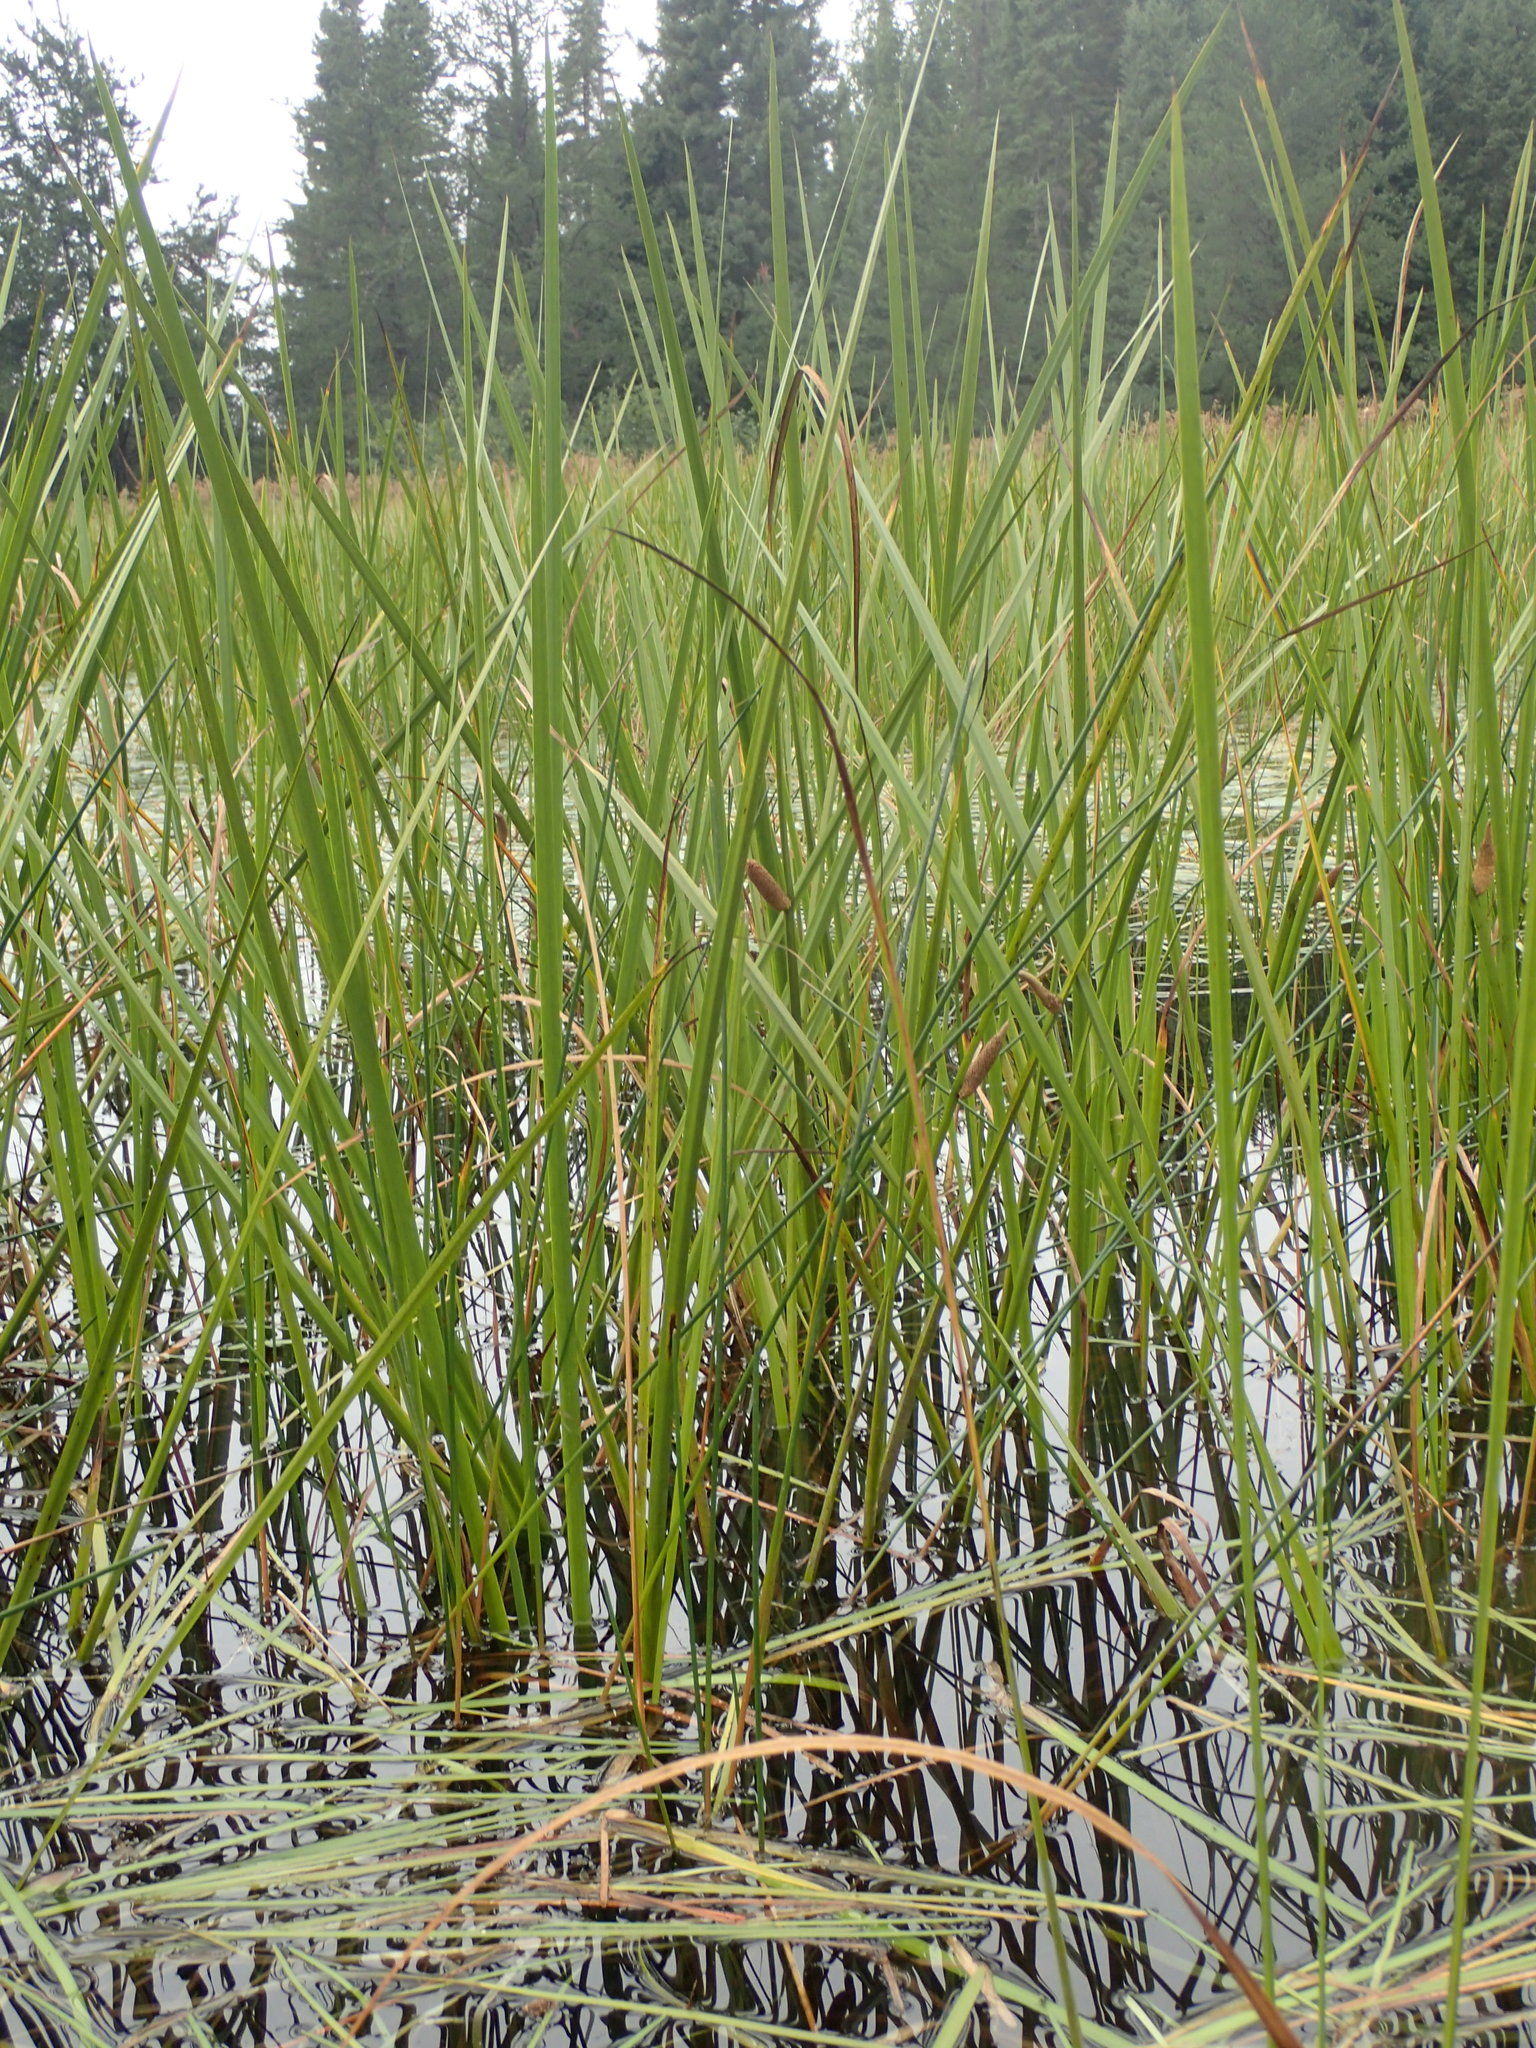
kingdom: Plantae
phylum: Tracheophyta
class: Liliopsida
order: Acorales
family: Acoraceae
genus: Acorus
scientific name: Acorus calamus
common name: Sweet-flag
